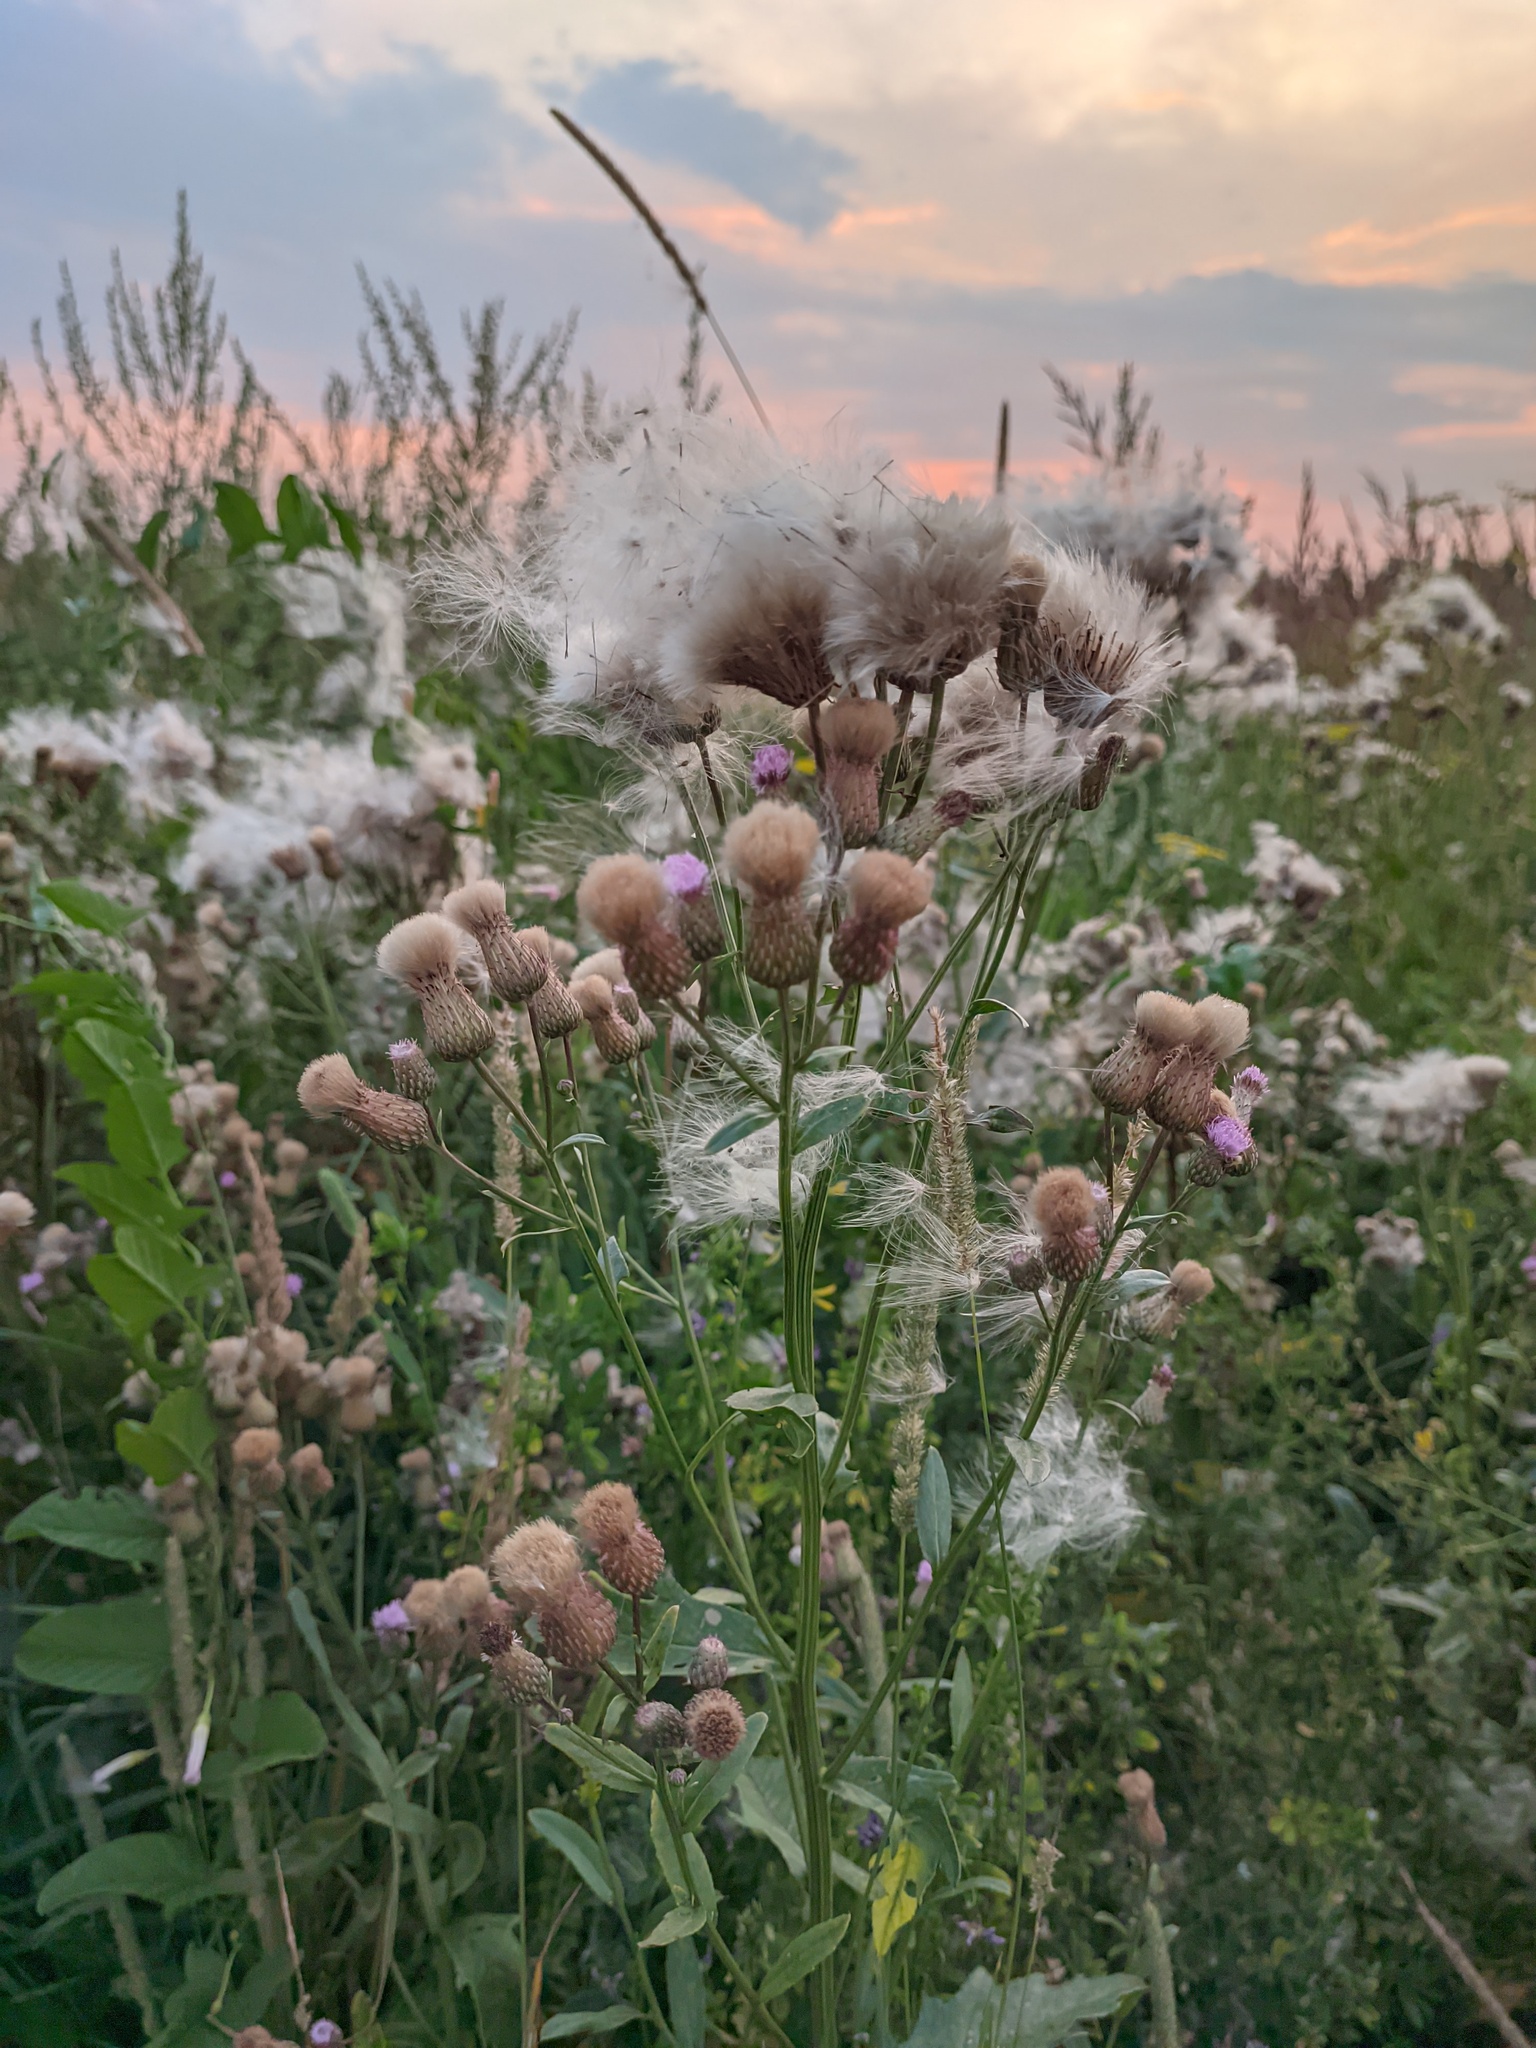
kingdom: Plantae
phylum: Tracheophyta
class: Magnoliopsida
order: Asterales
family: Asteraceae
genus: Cirsium
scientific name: Cirsium arvense
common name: Creeping thistle
